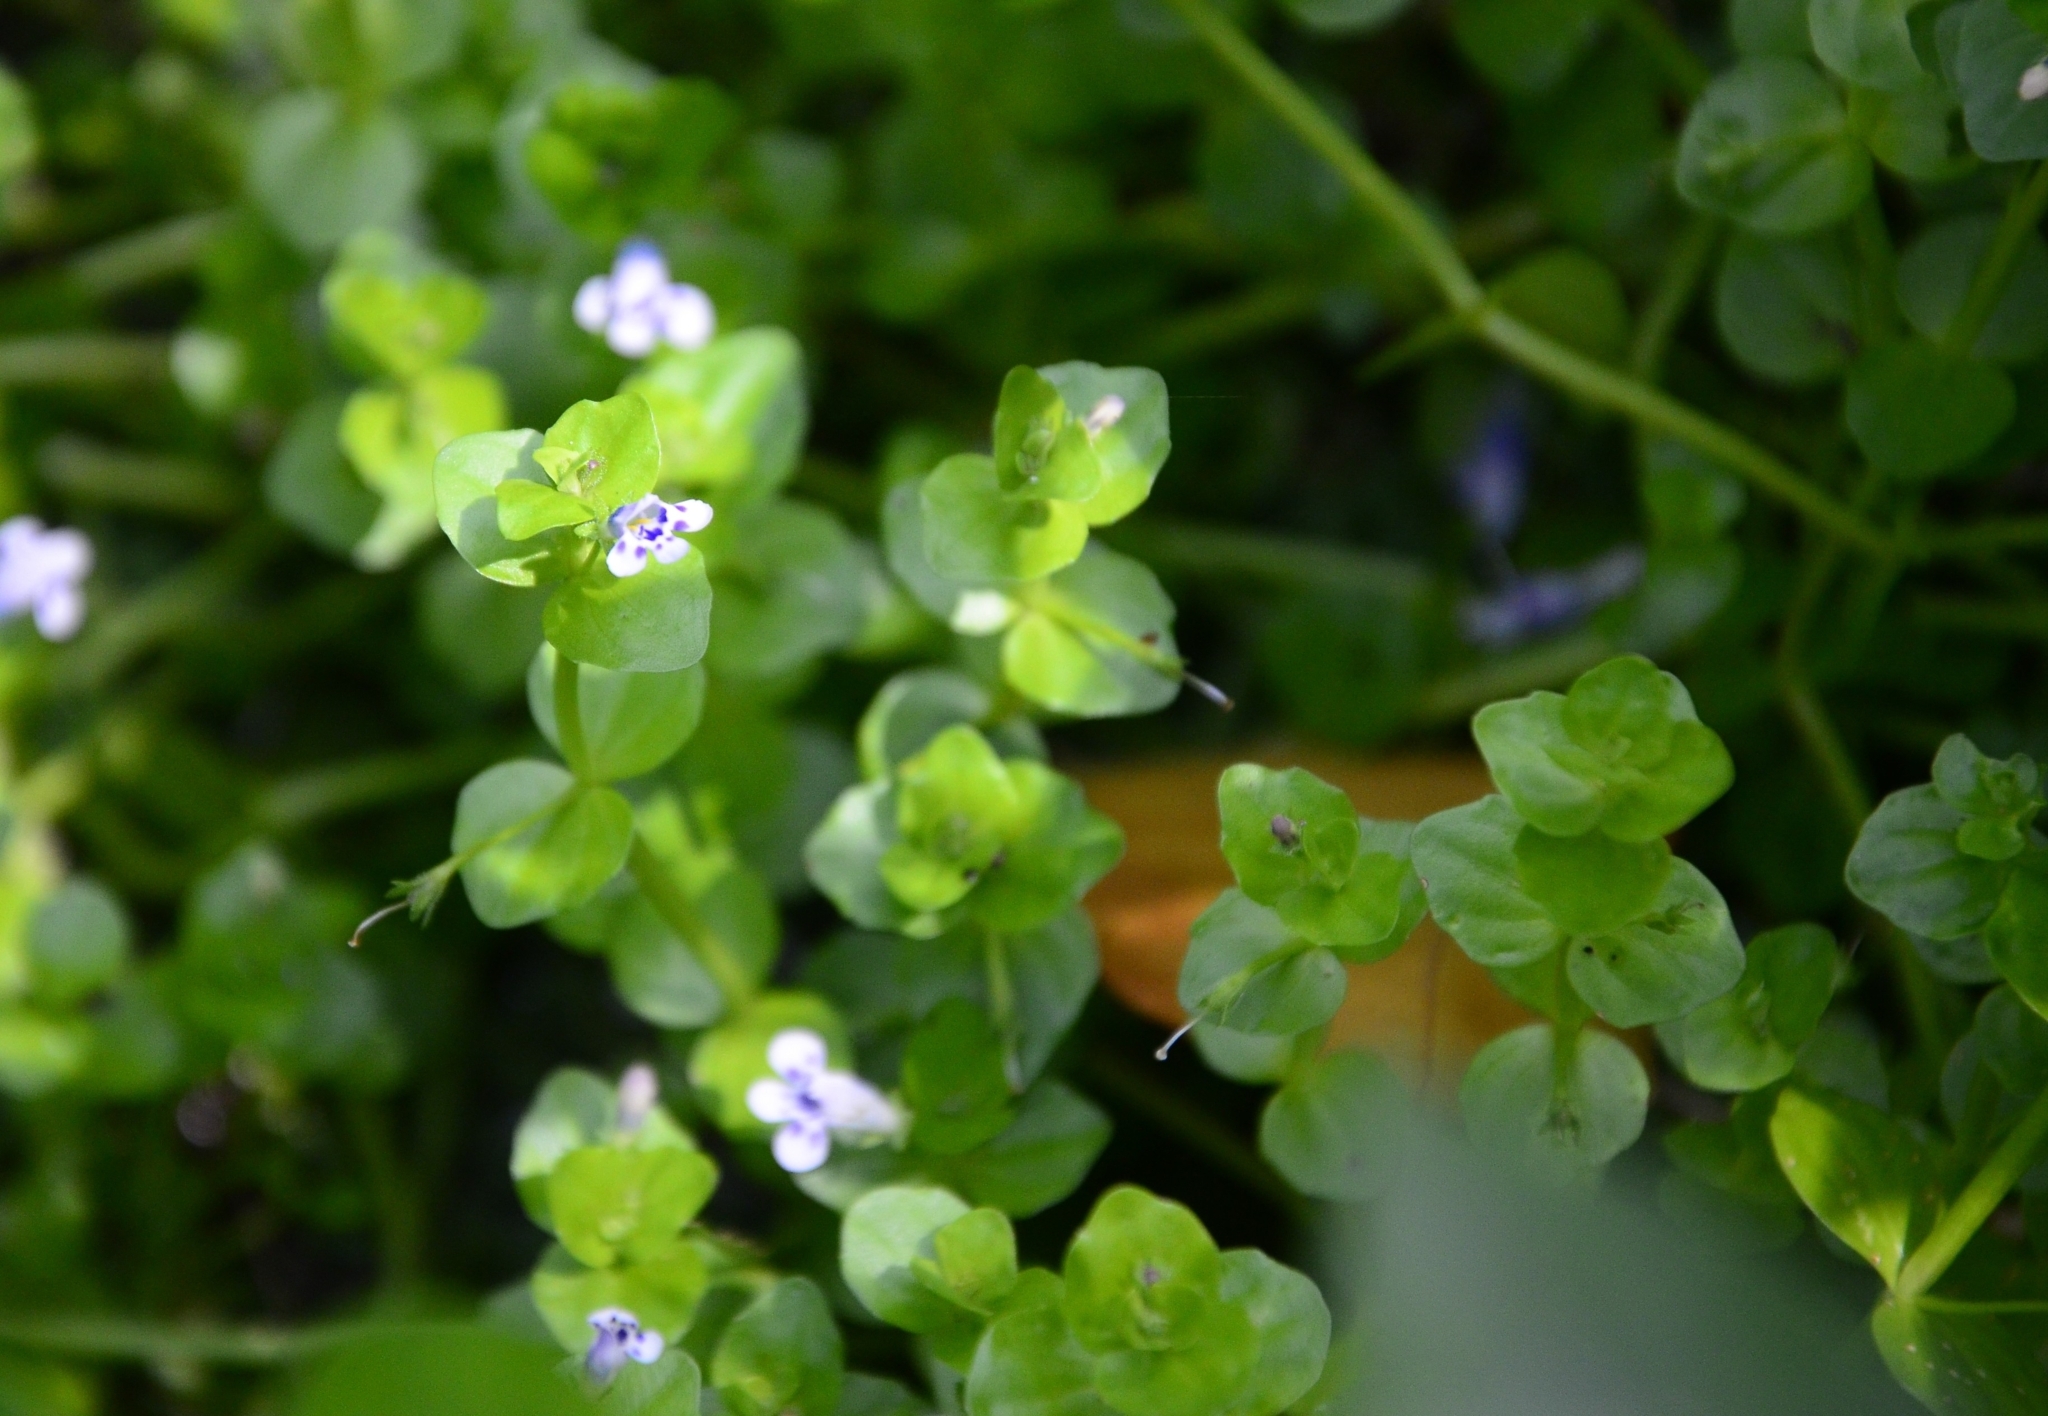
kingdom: Plantae
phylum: Tracheophyta
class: Magnoliopsida
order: Lamiales
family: Linderniaceae
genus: Lindernia
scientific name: Lindernia rotundifolia
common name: Baby’s tears
